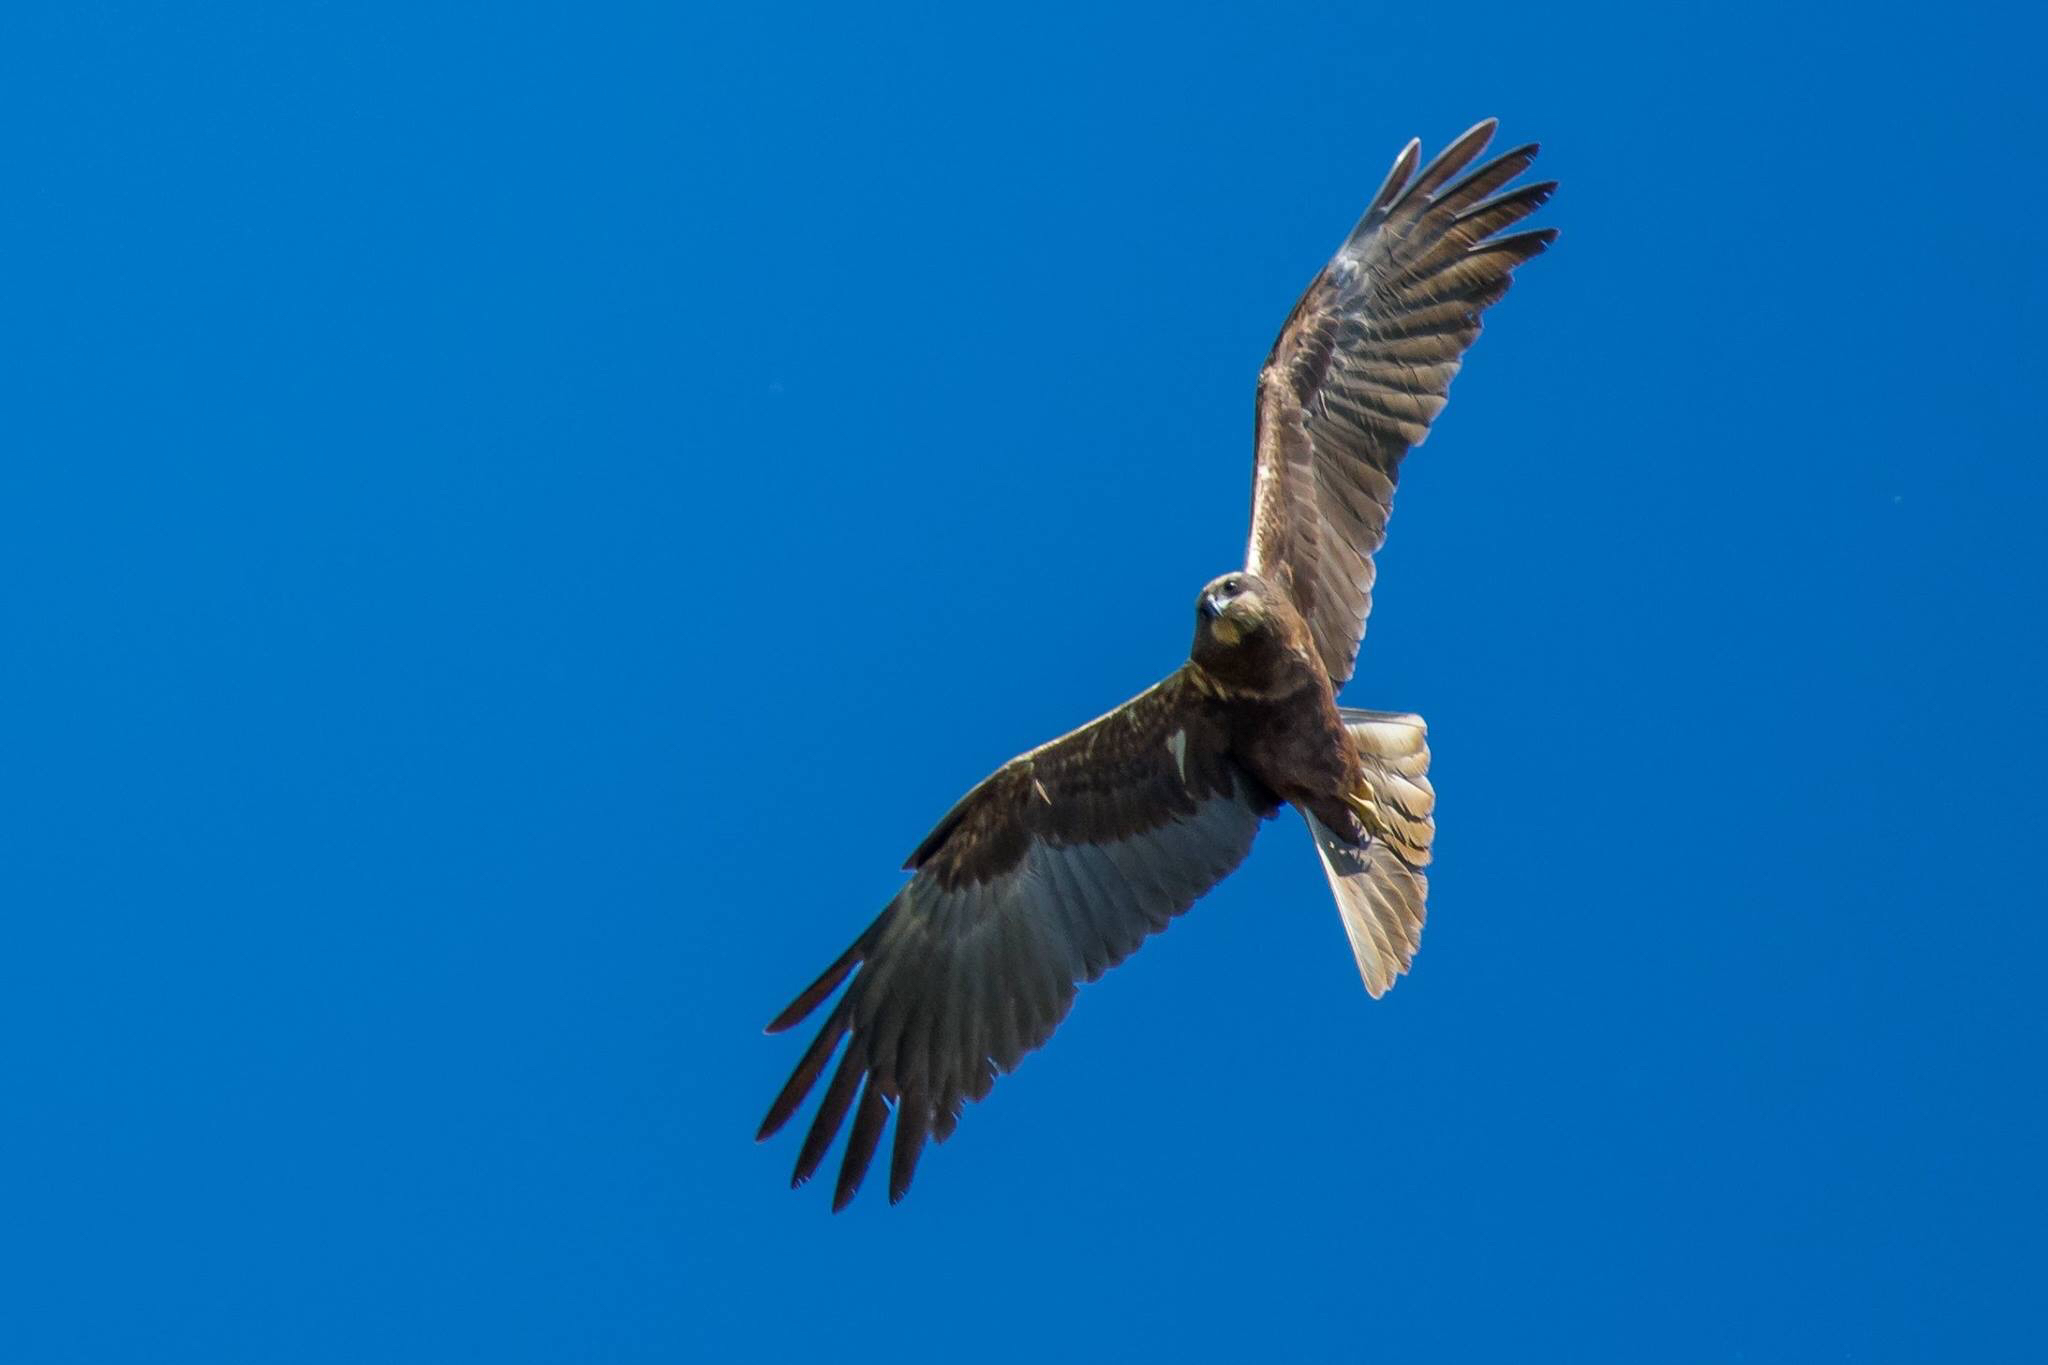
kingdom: Animalia
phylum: Chordata
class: Aves
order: Accipitriformes
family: Accipitridae
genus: Circus
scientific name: Circus aeruginosus
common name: Western marsh harrier
